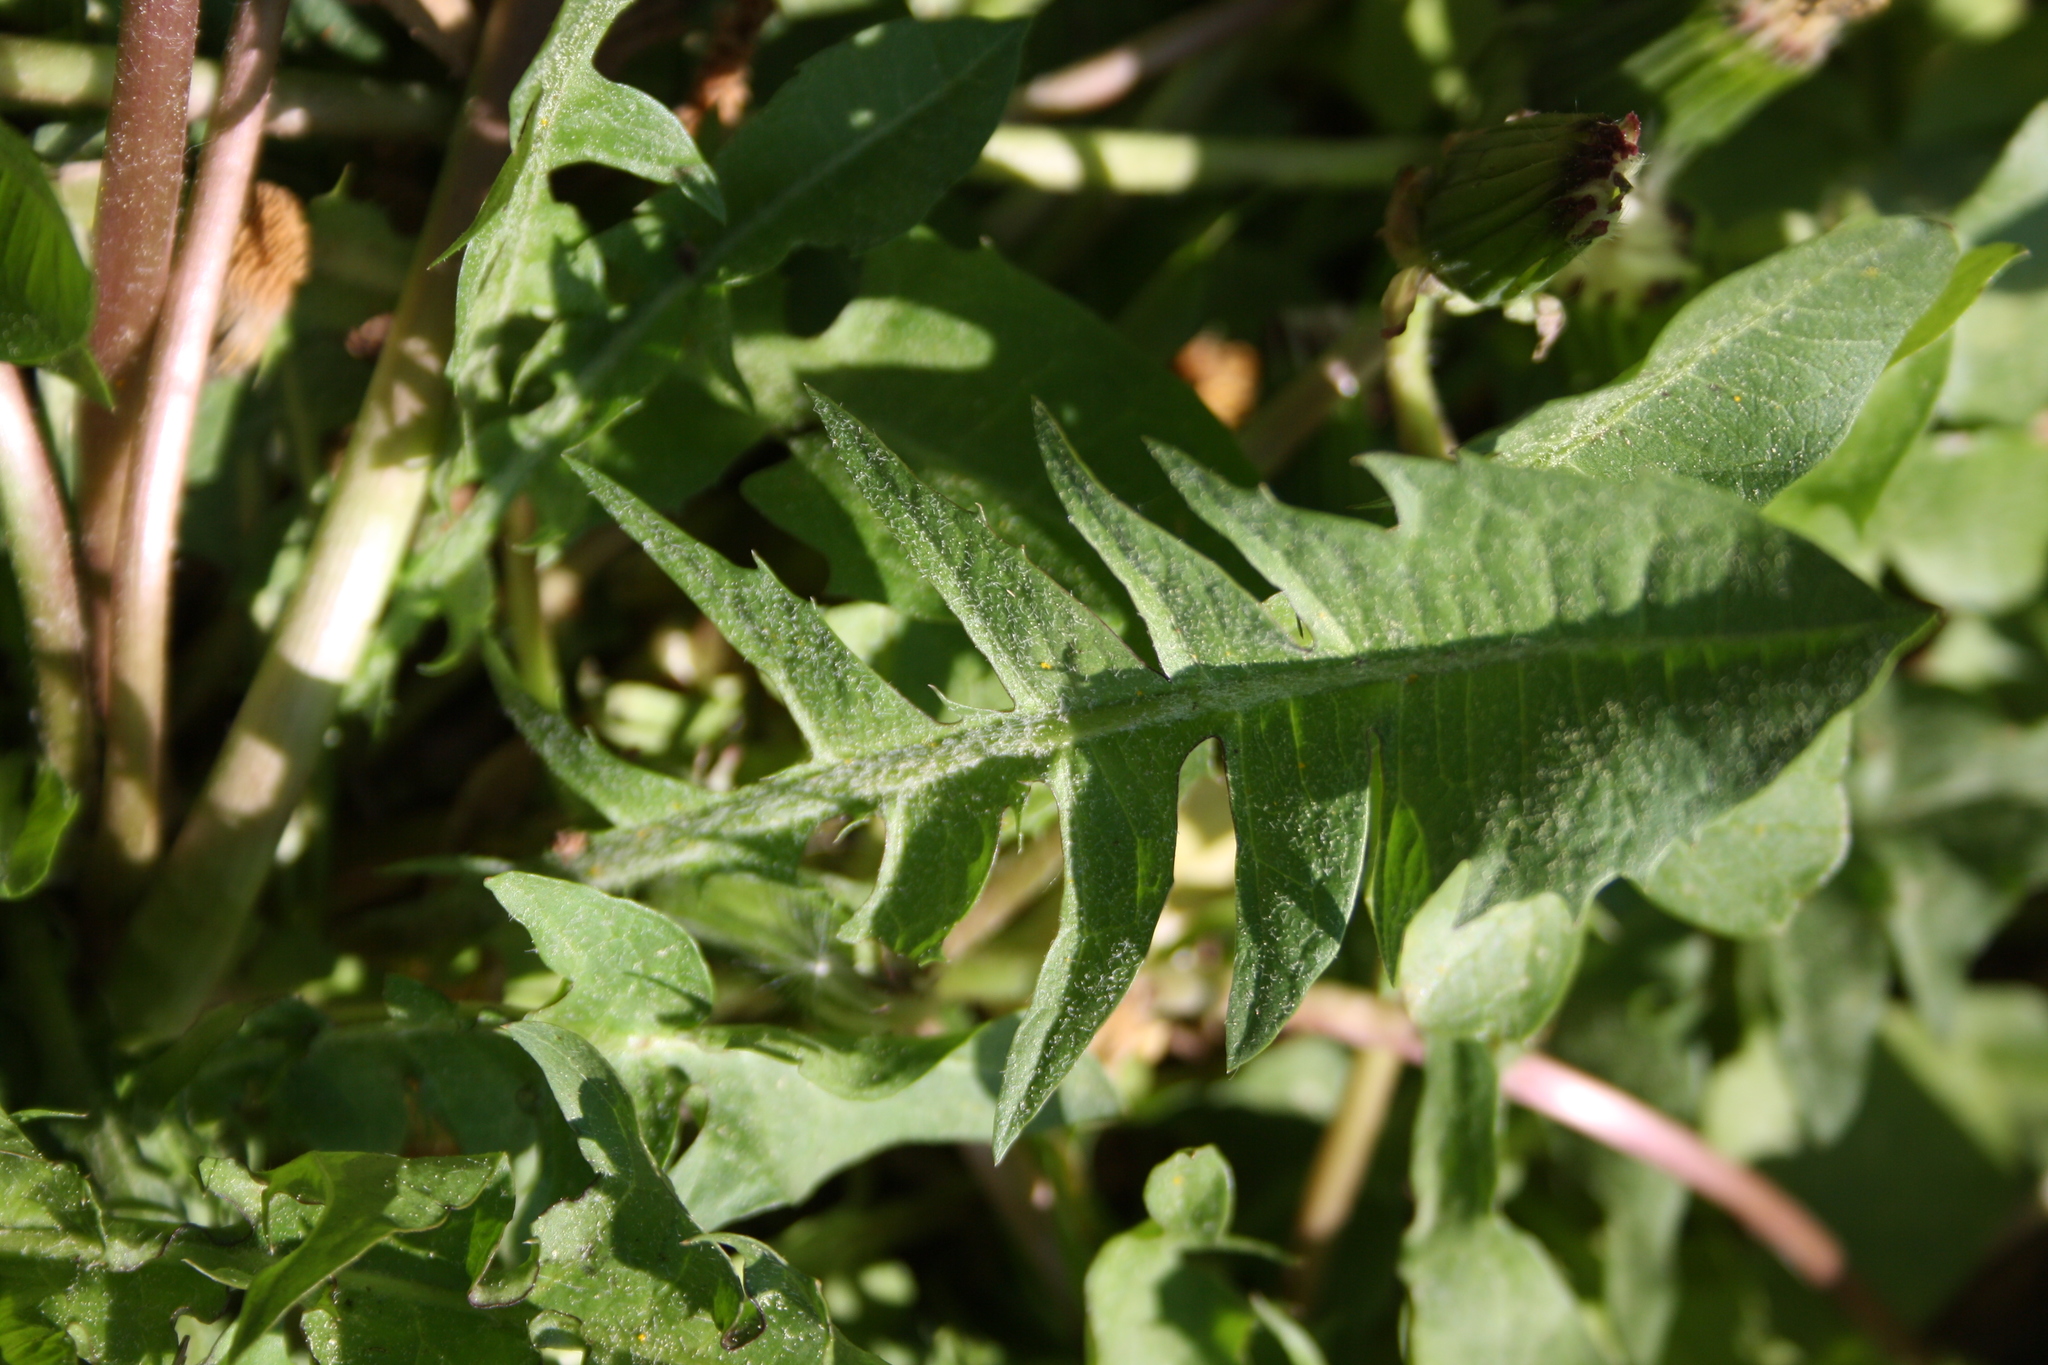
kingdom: Plantae
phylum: Tracheophyta
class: Magnoliopsida
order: Asterales
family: Asteraceae
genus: Taraxacum
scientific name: Taraxacum officinale
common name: Common dandelion
